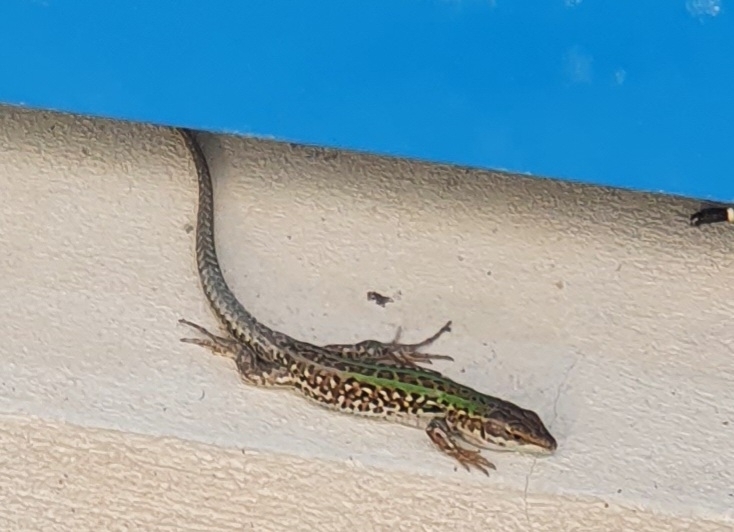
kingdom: Animalia
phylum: Chordata
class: Squamata
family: Lacertidae
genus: Podarcis
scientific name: Podarcis siculus
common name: Italian wall lizard
